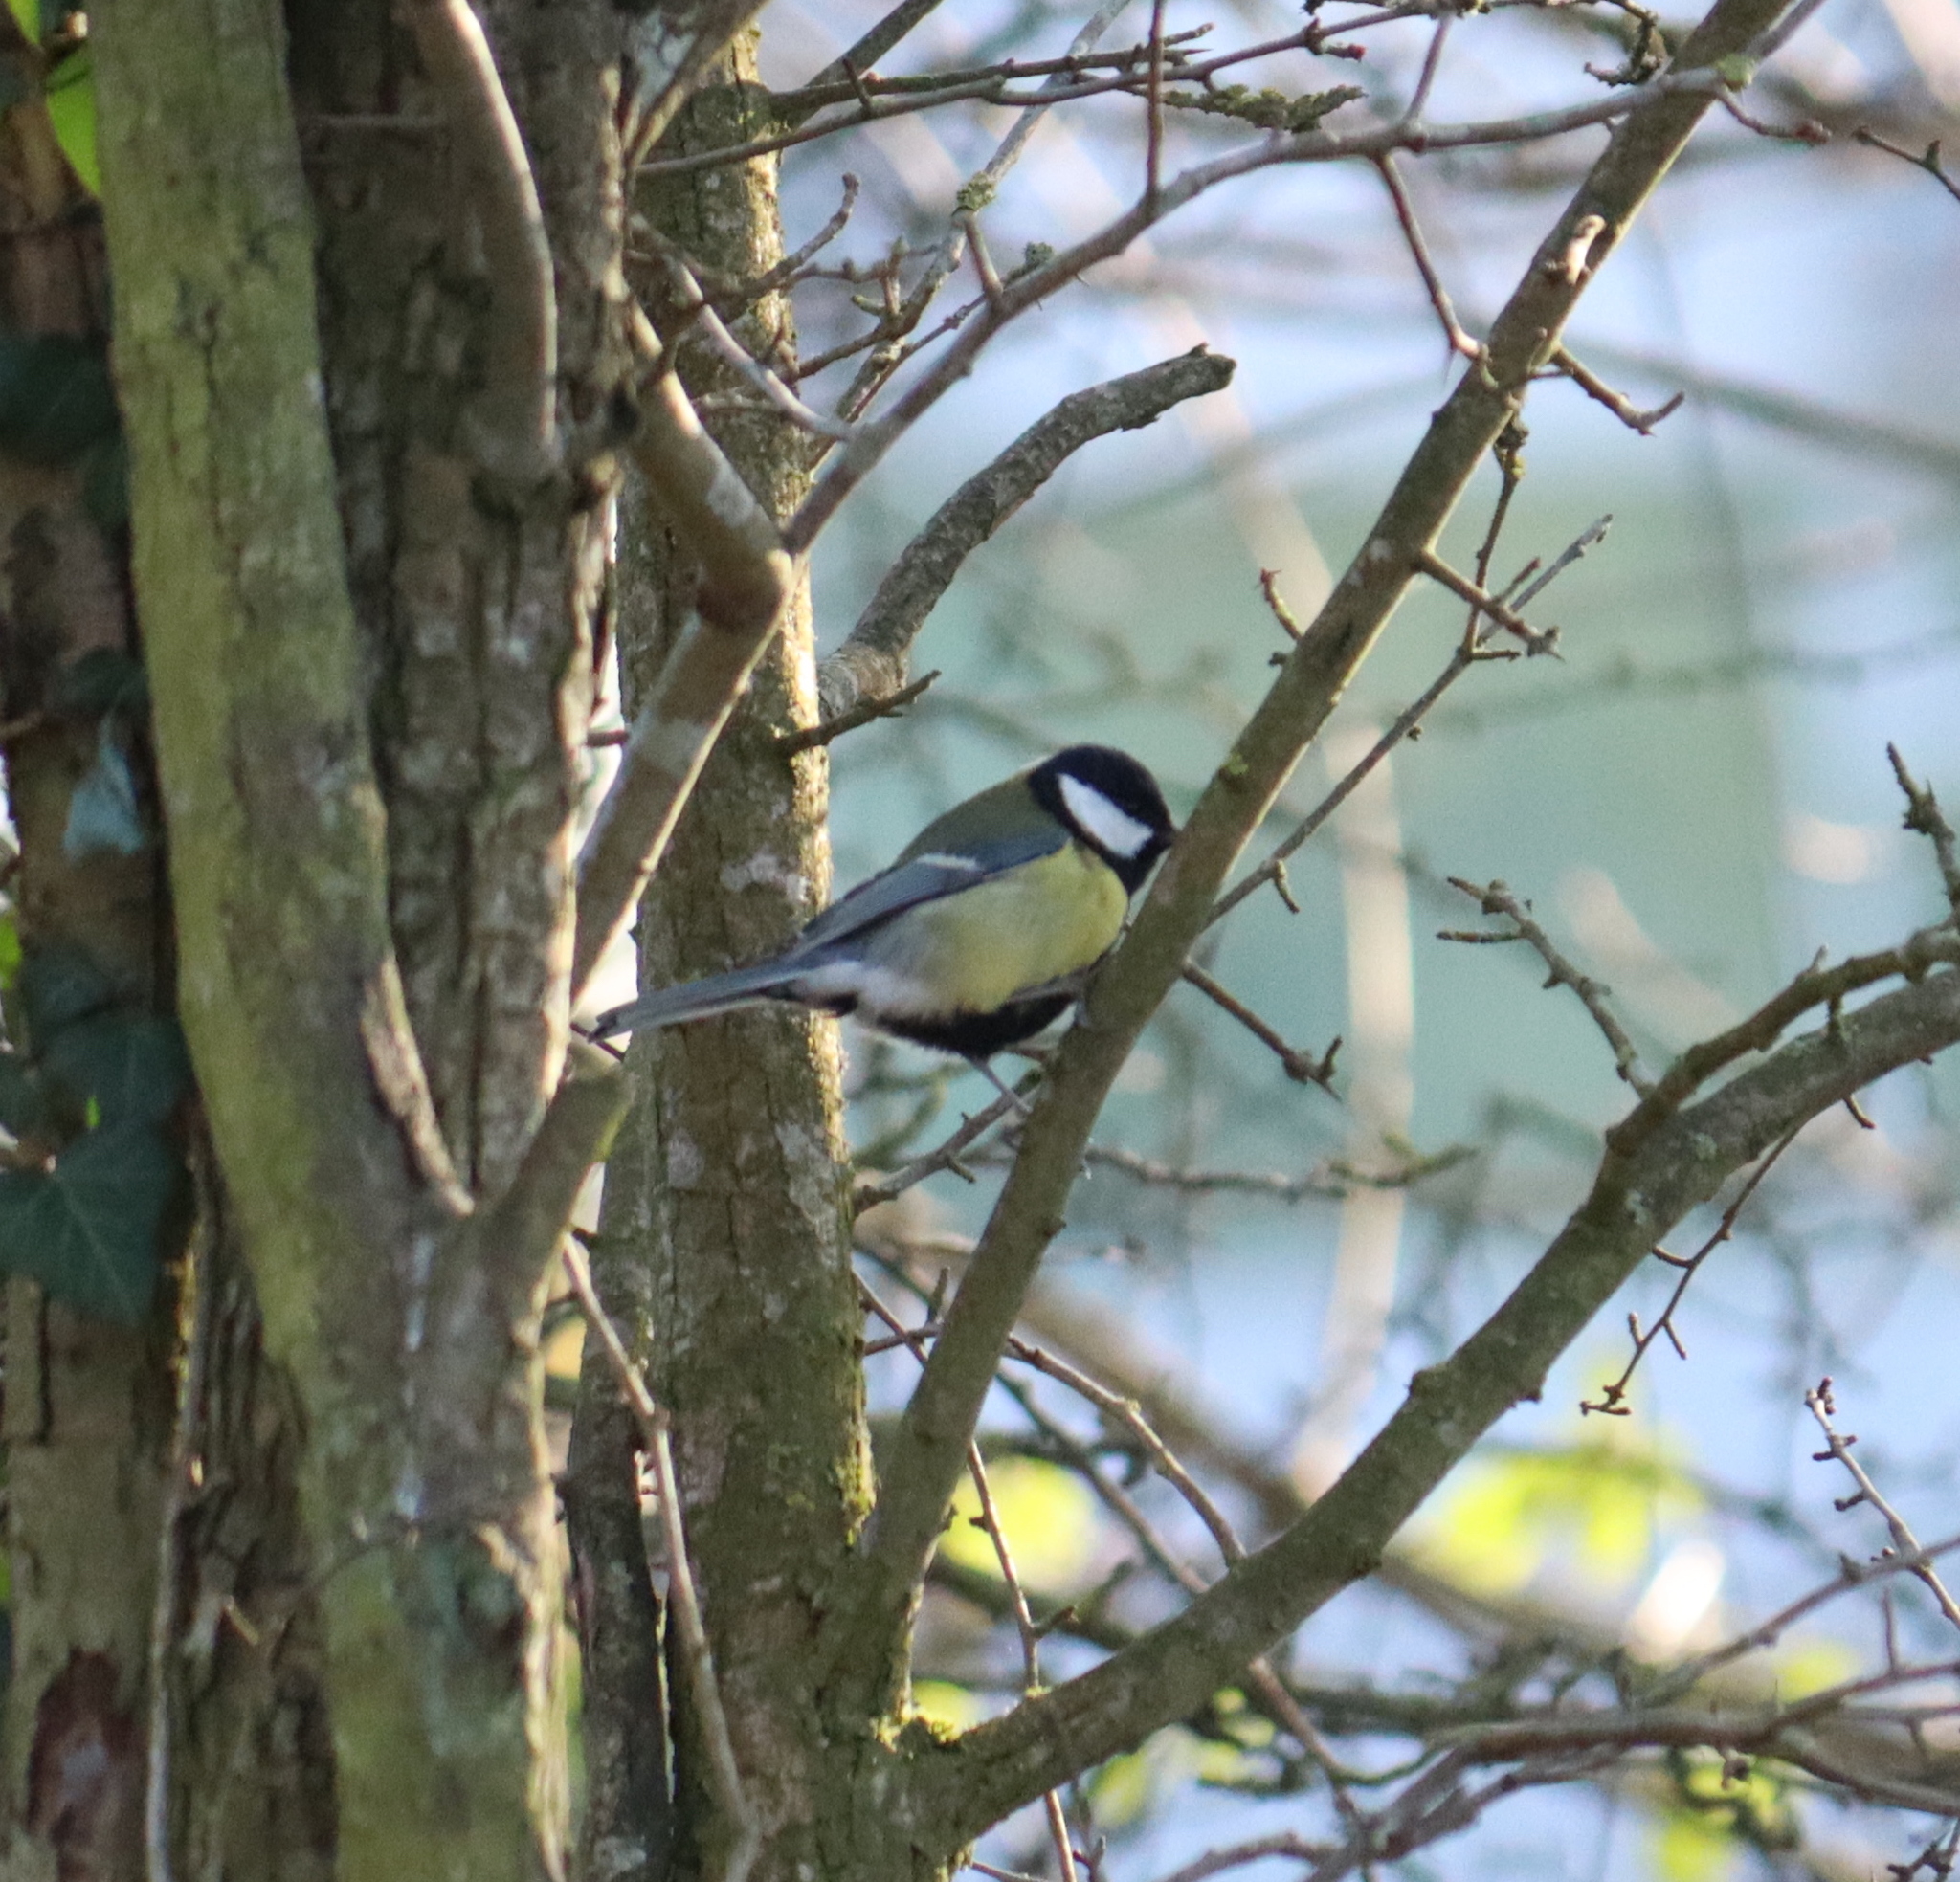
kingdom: Animalia
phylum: Chordata
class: Aves
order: Passeriformes
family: Paridae
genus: Parus
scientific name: Parus major
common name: Great tit
